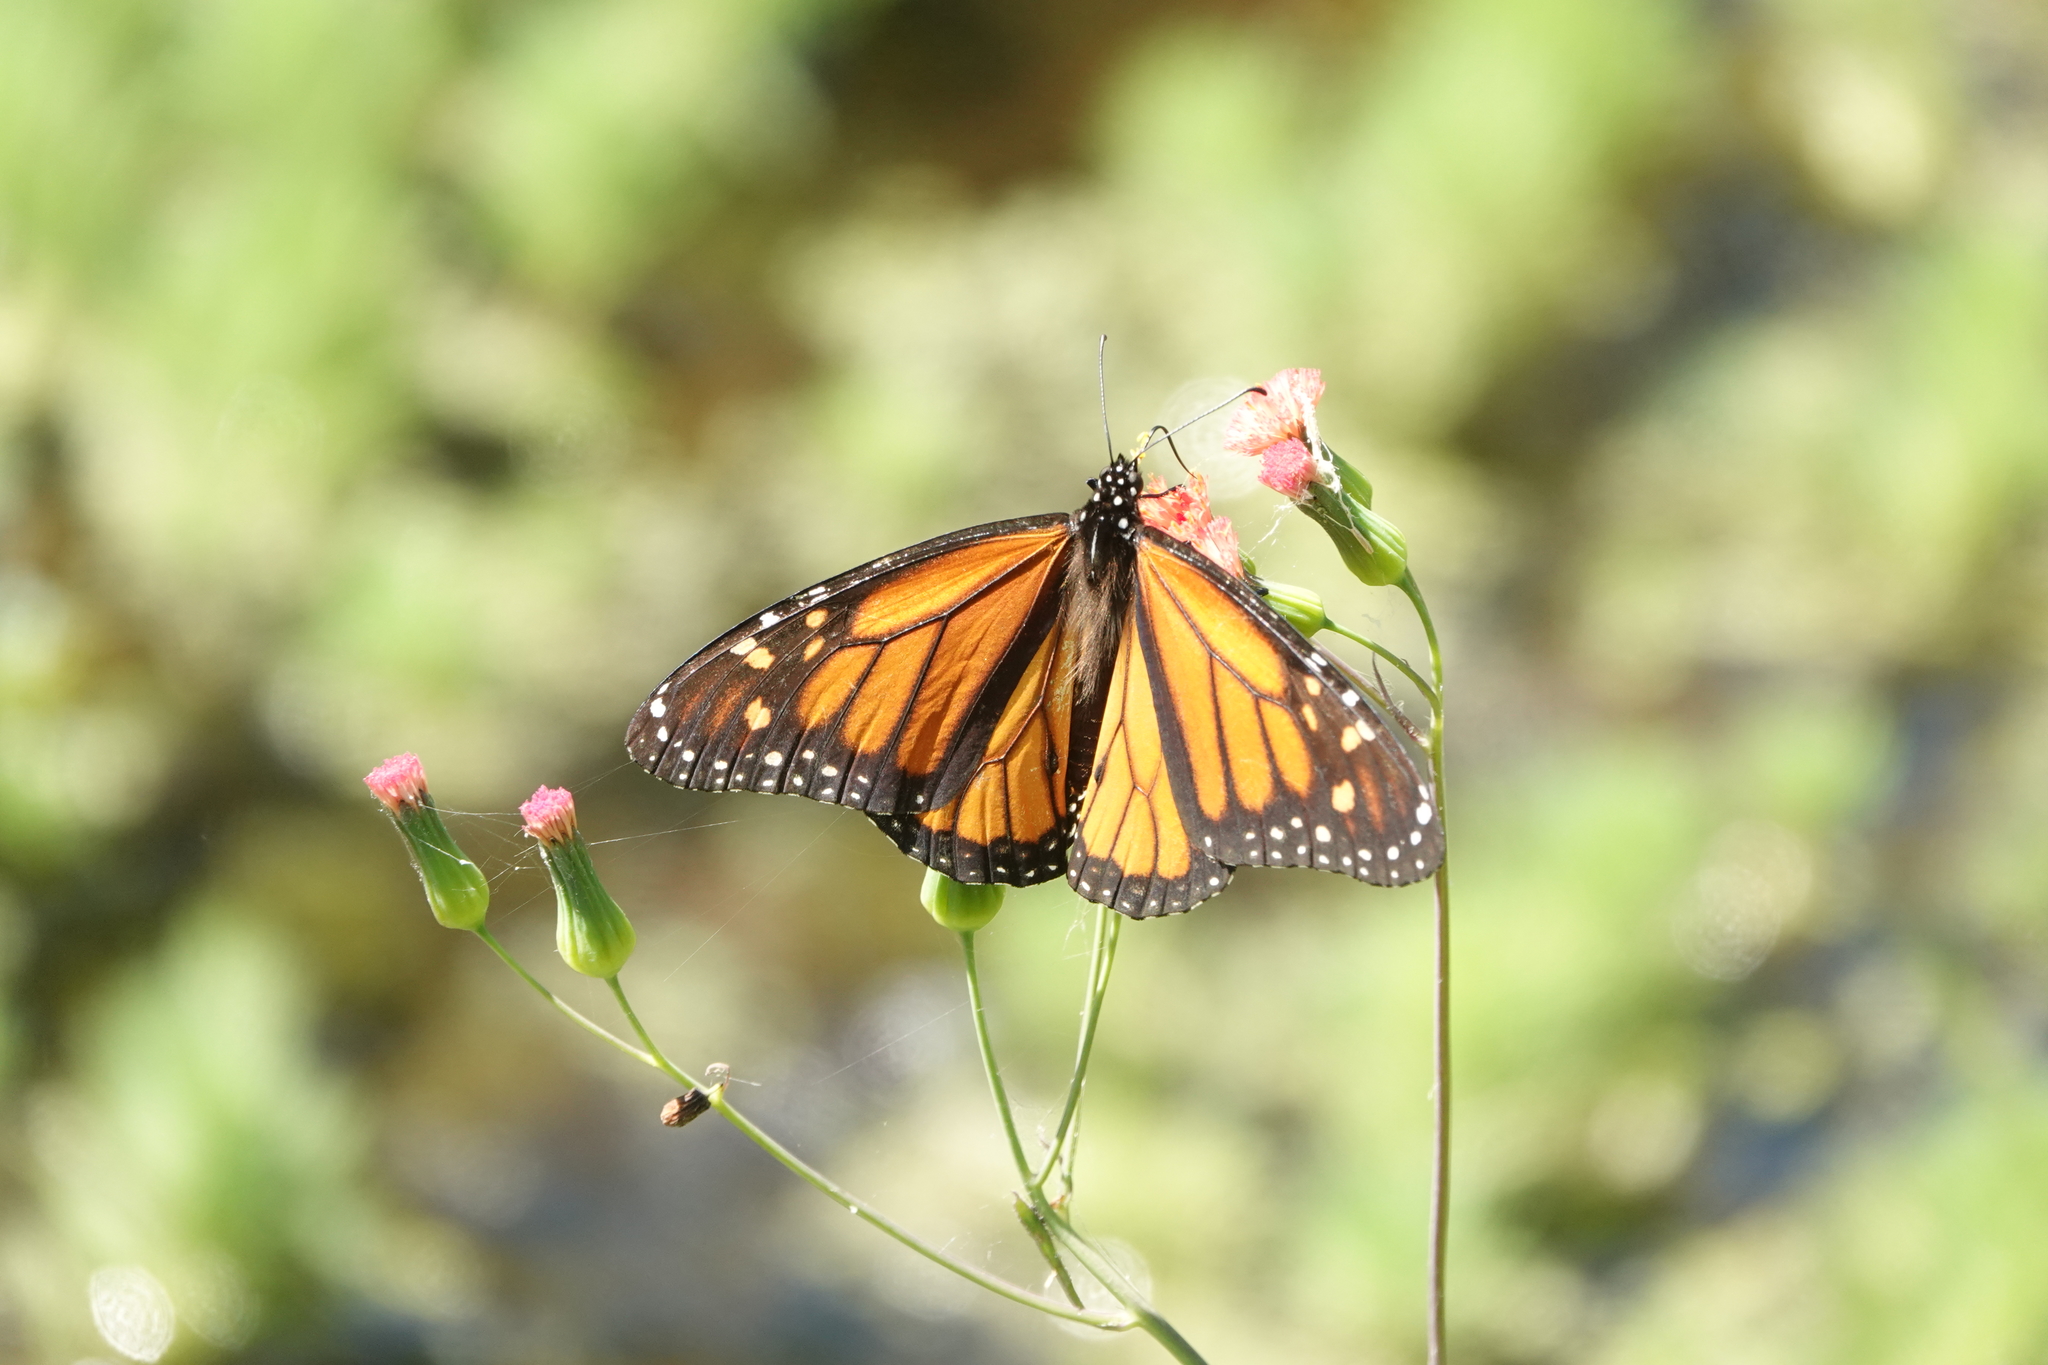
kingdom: Animalia
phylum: Arthropoda
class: Insecta
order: Lepidoptera
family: Nymphalidae
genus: Danaus
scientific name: Danaus plexippus
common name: Monarch
